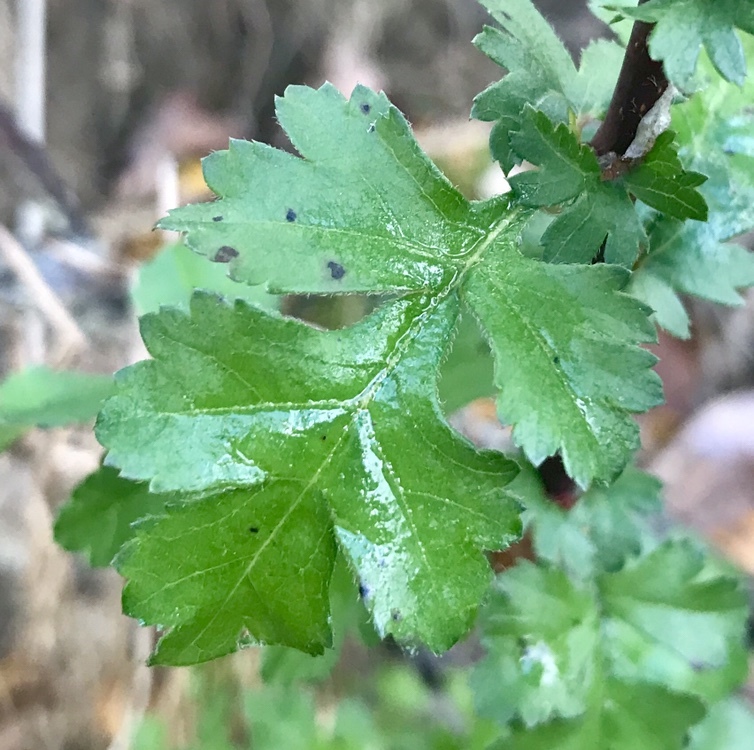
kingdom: Plantae
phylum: Tracheophyta
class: Magnoliopsida
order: Rosales
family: Rosaceae
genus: Crataegus
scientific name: Crataegus monogyna
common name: Hawthorn
